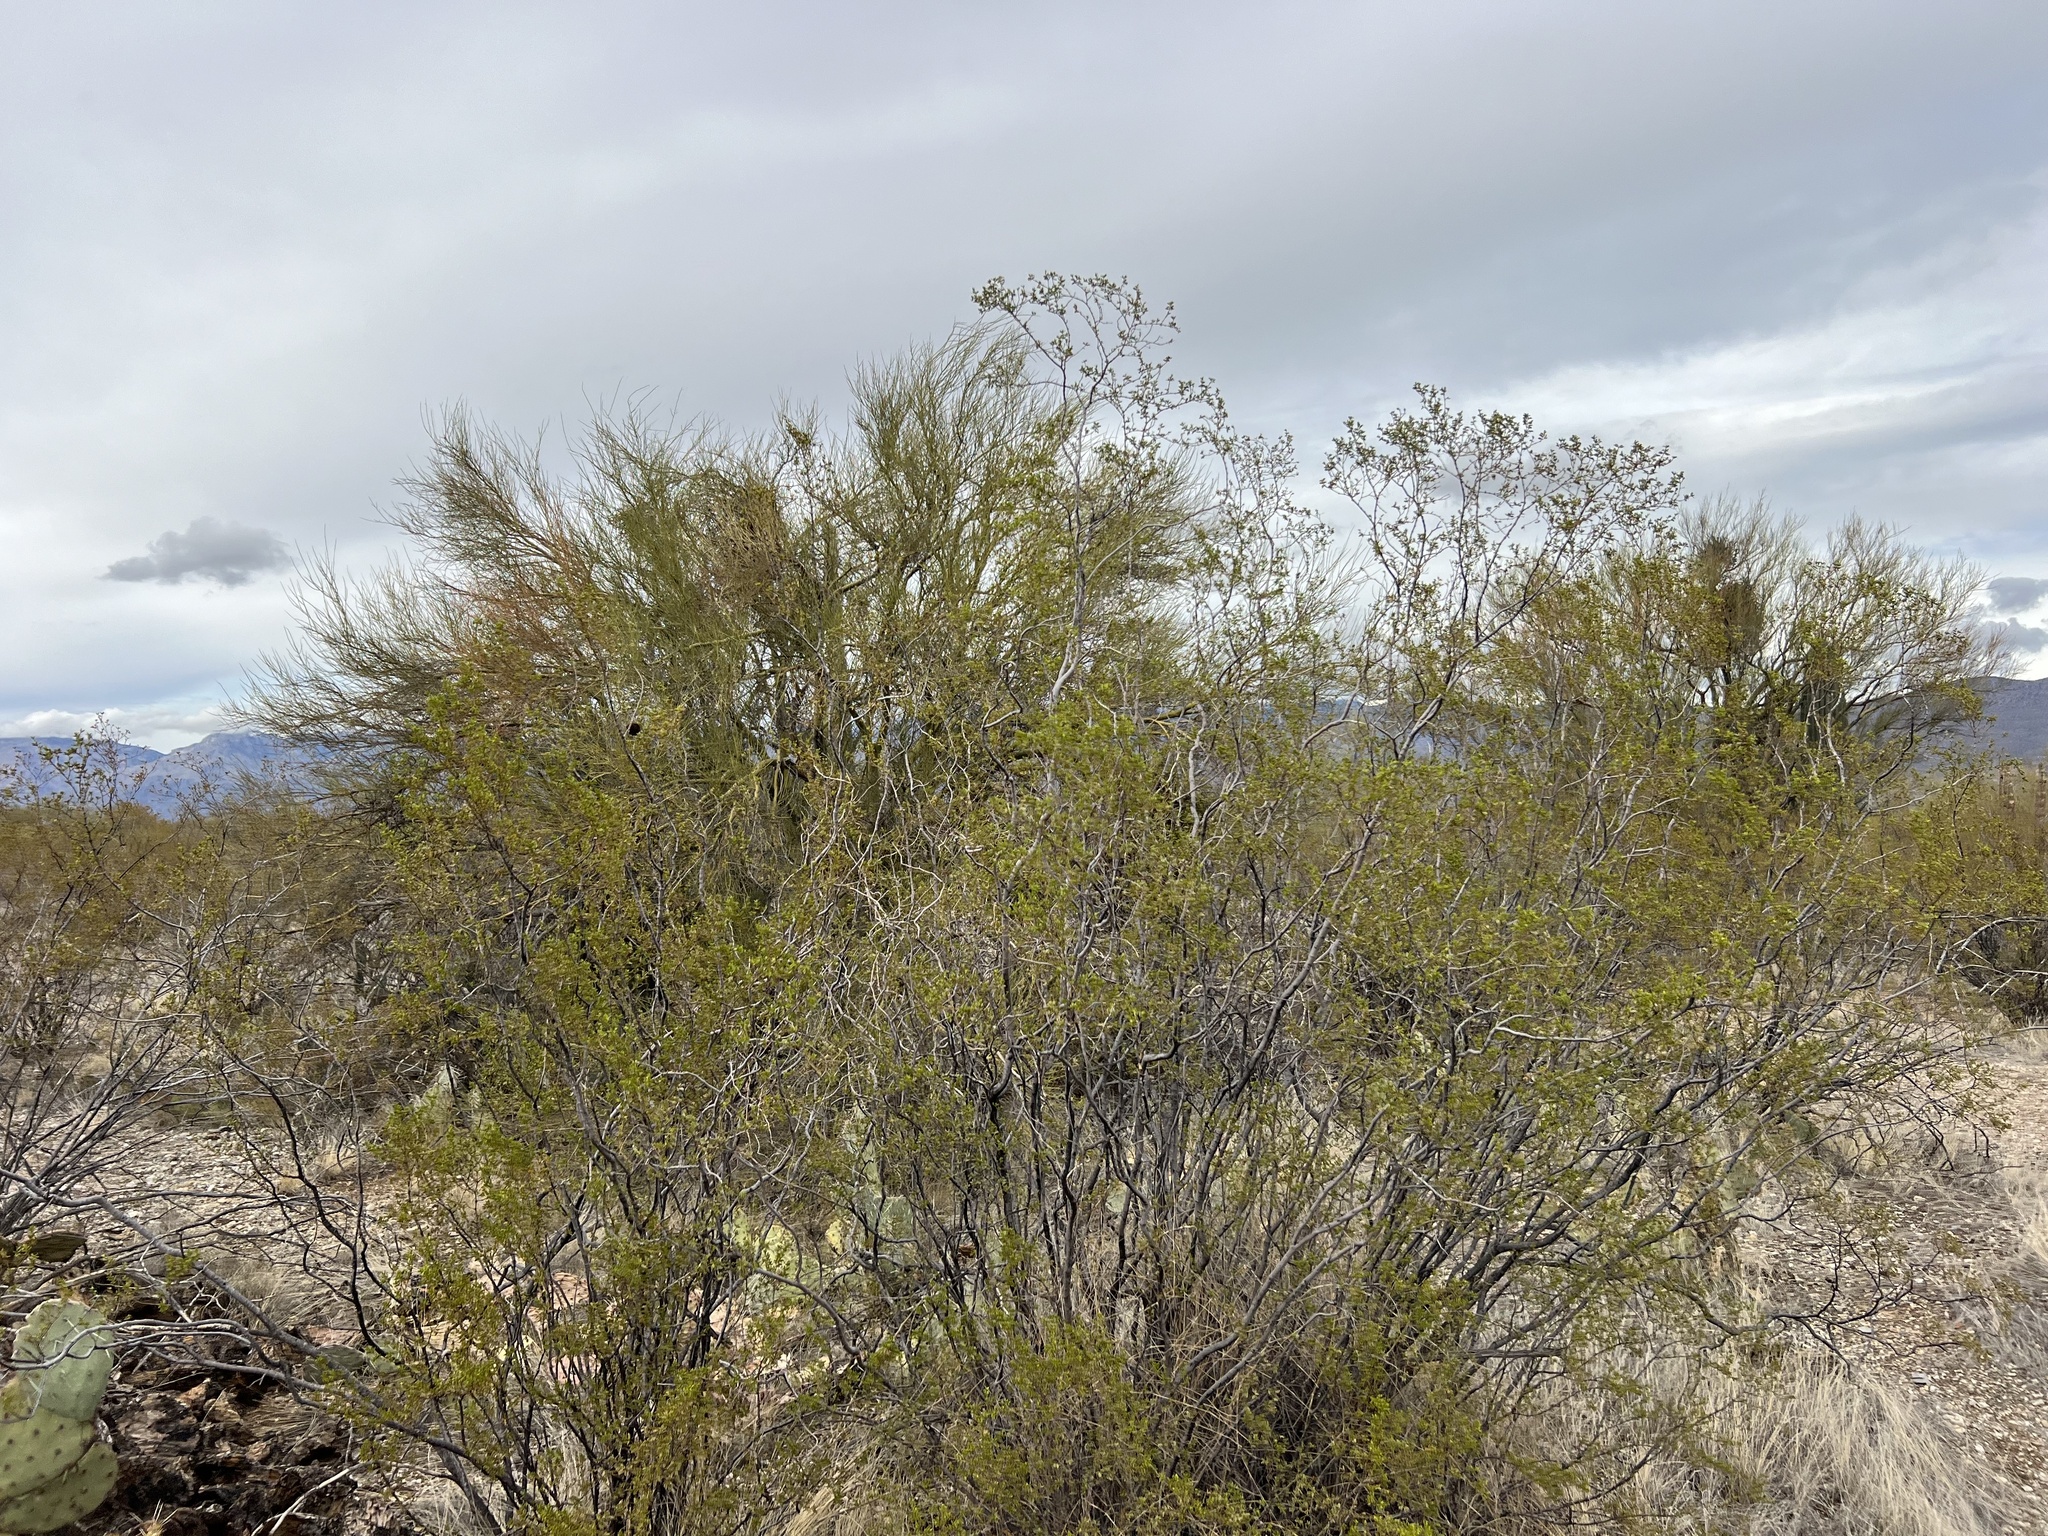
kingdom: Plantae
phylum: Tracheophyta
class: Magnoliopsida
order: Zygophyllales
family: Zygophyllaceae
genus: Larrea
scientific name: Larrea tridentata
